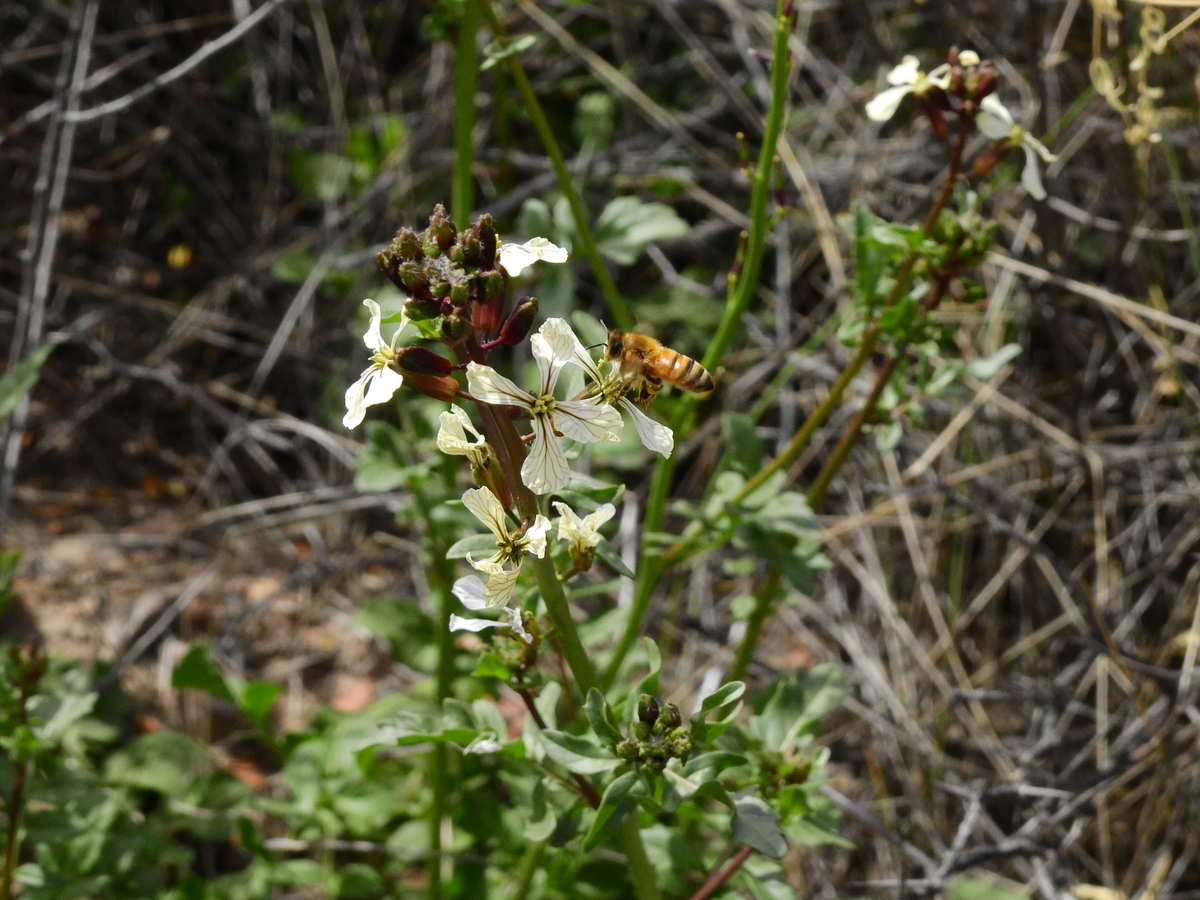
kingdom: Animalia
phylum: Arthropoda
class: Insecta
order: Hymenoptera
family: Apidae
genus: Apis
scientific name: Apis mellifera
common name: Honey bee
